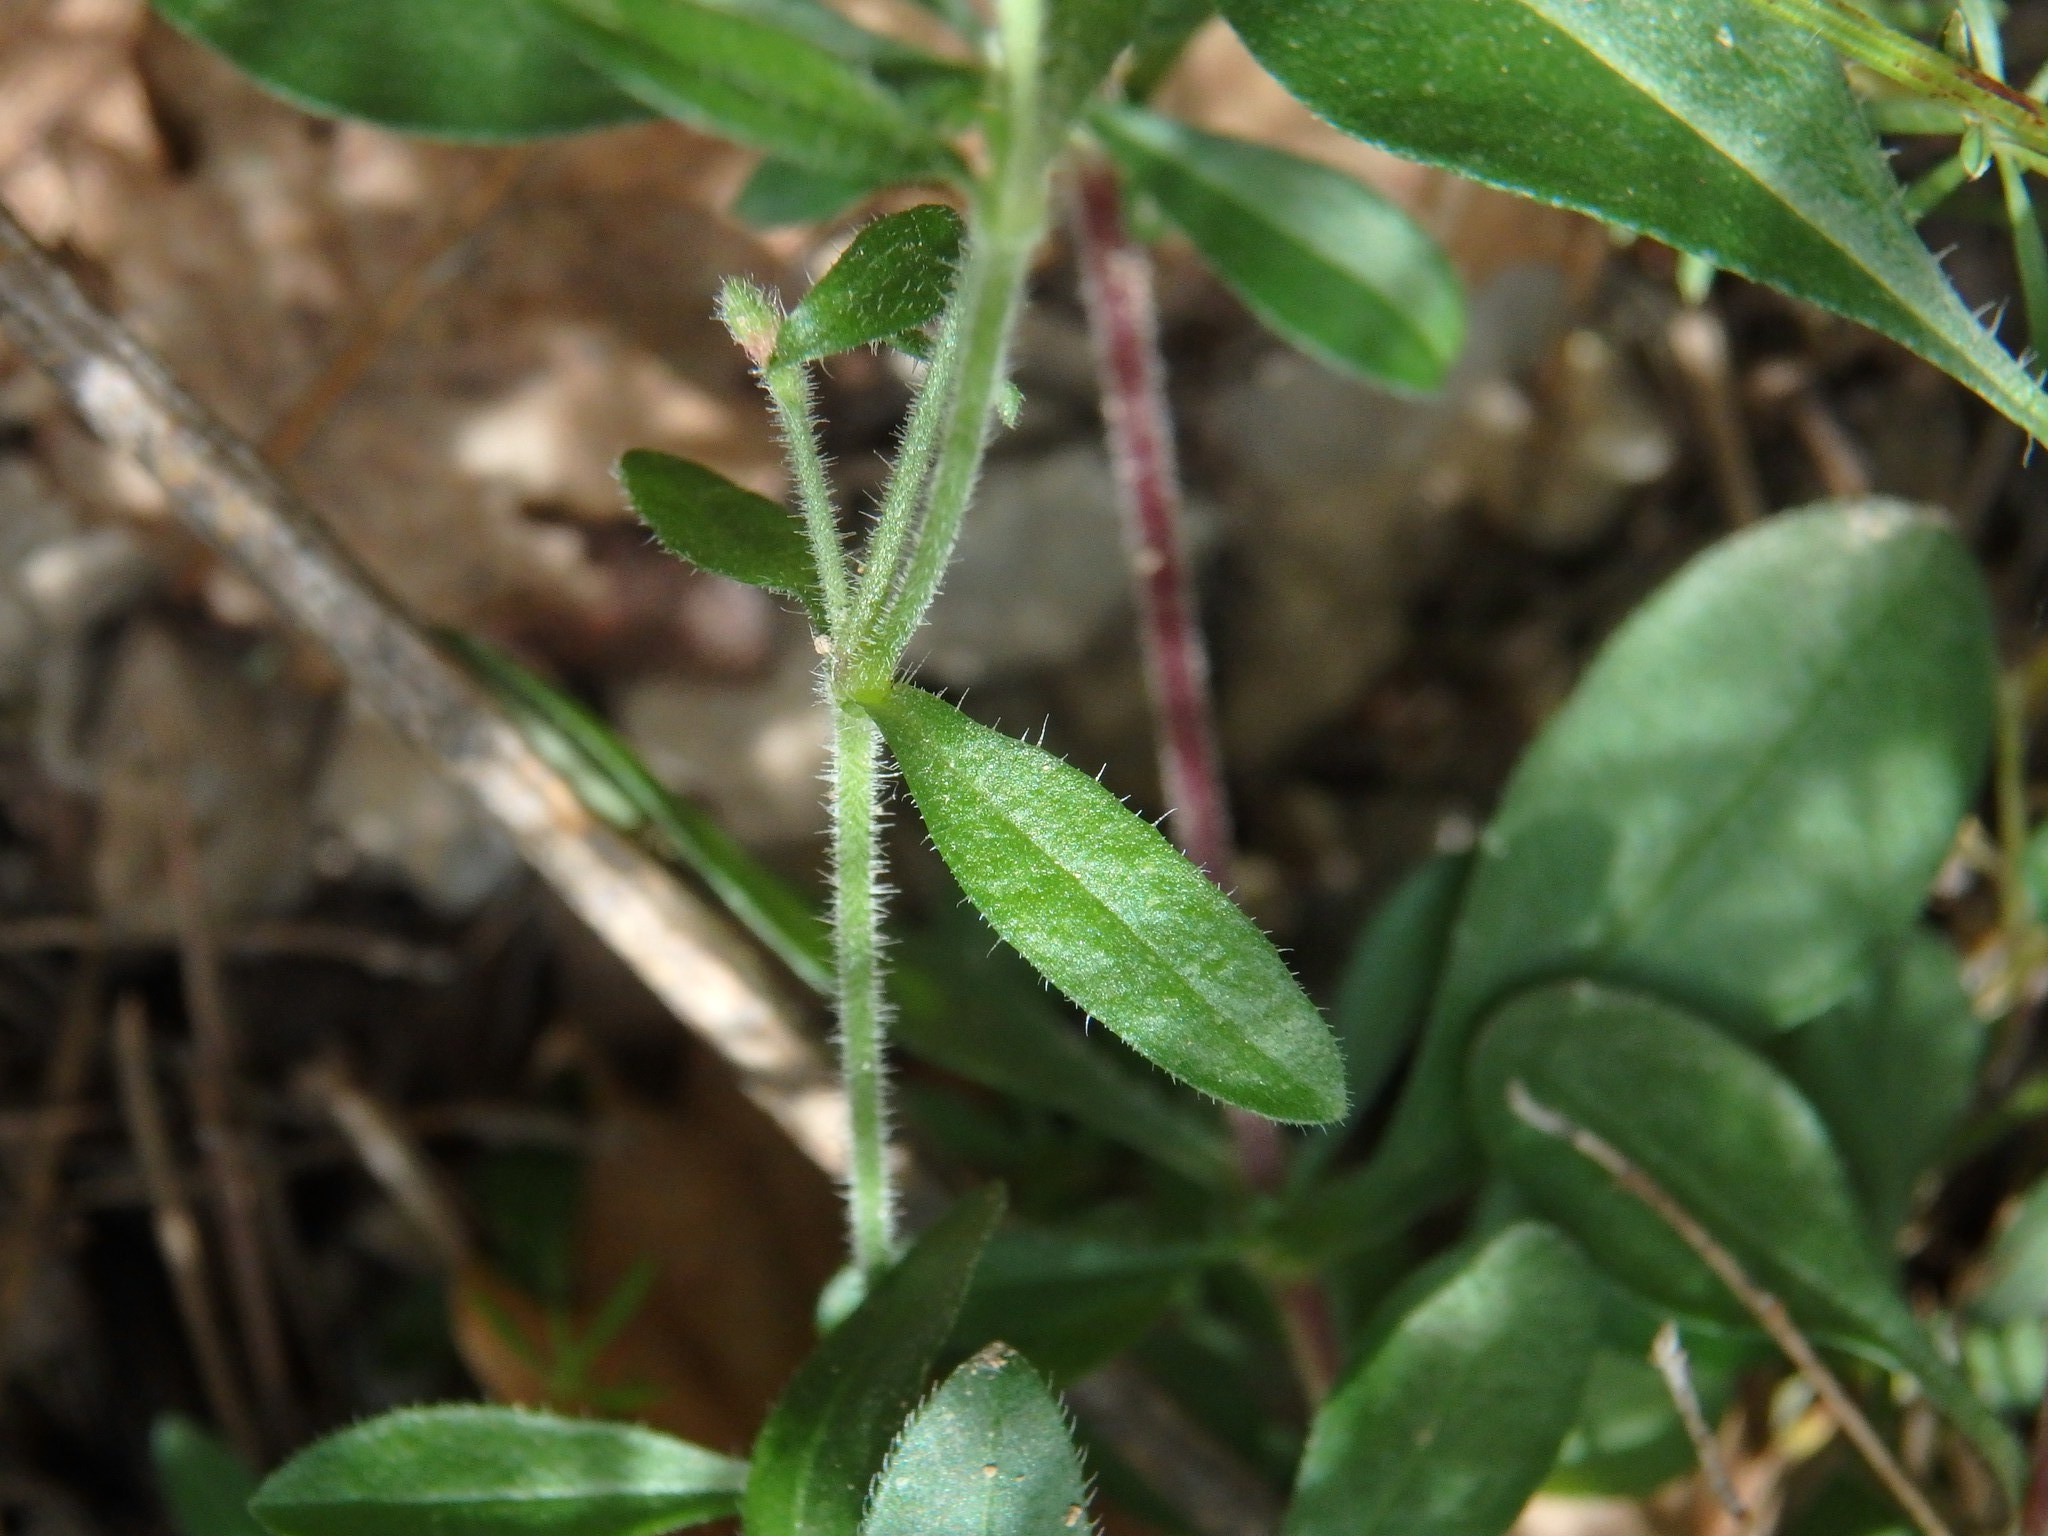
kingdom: Plantae
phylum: Tracheophyta
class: Magnoliopsida
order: Caryophyllales
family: Caryophyllaceae
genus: Saponaria
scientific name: Saponaria ocymoides
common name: Rock soapwort
